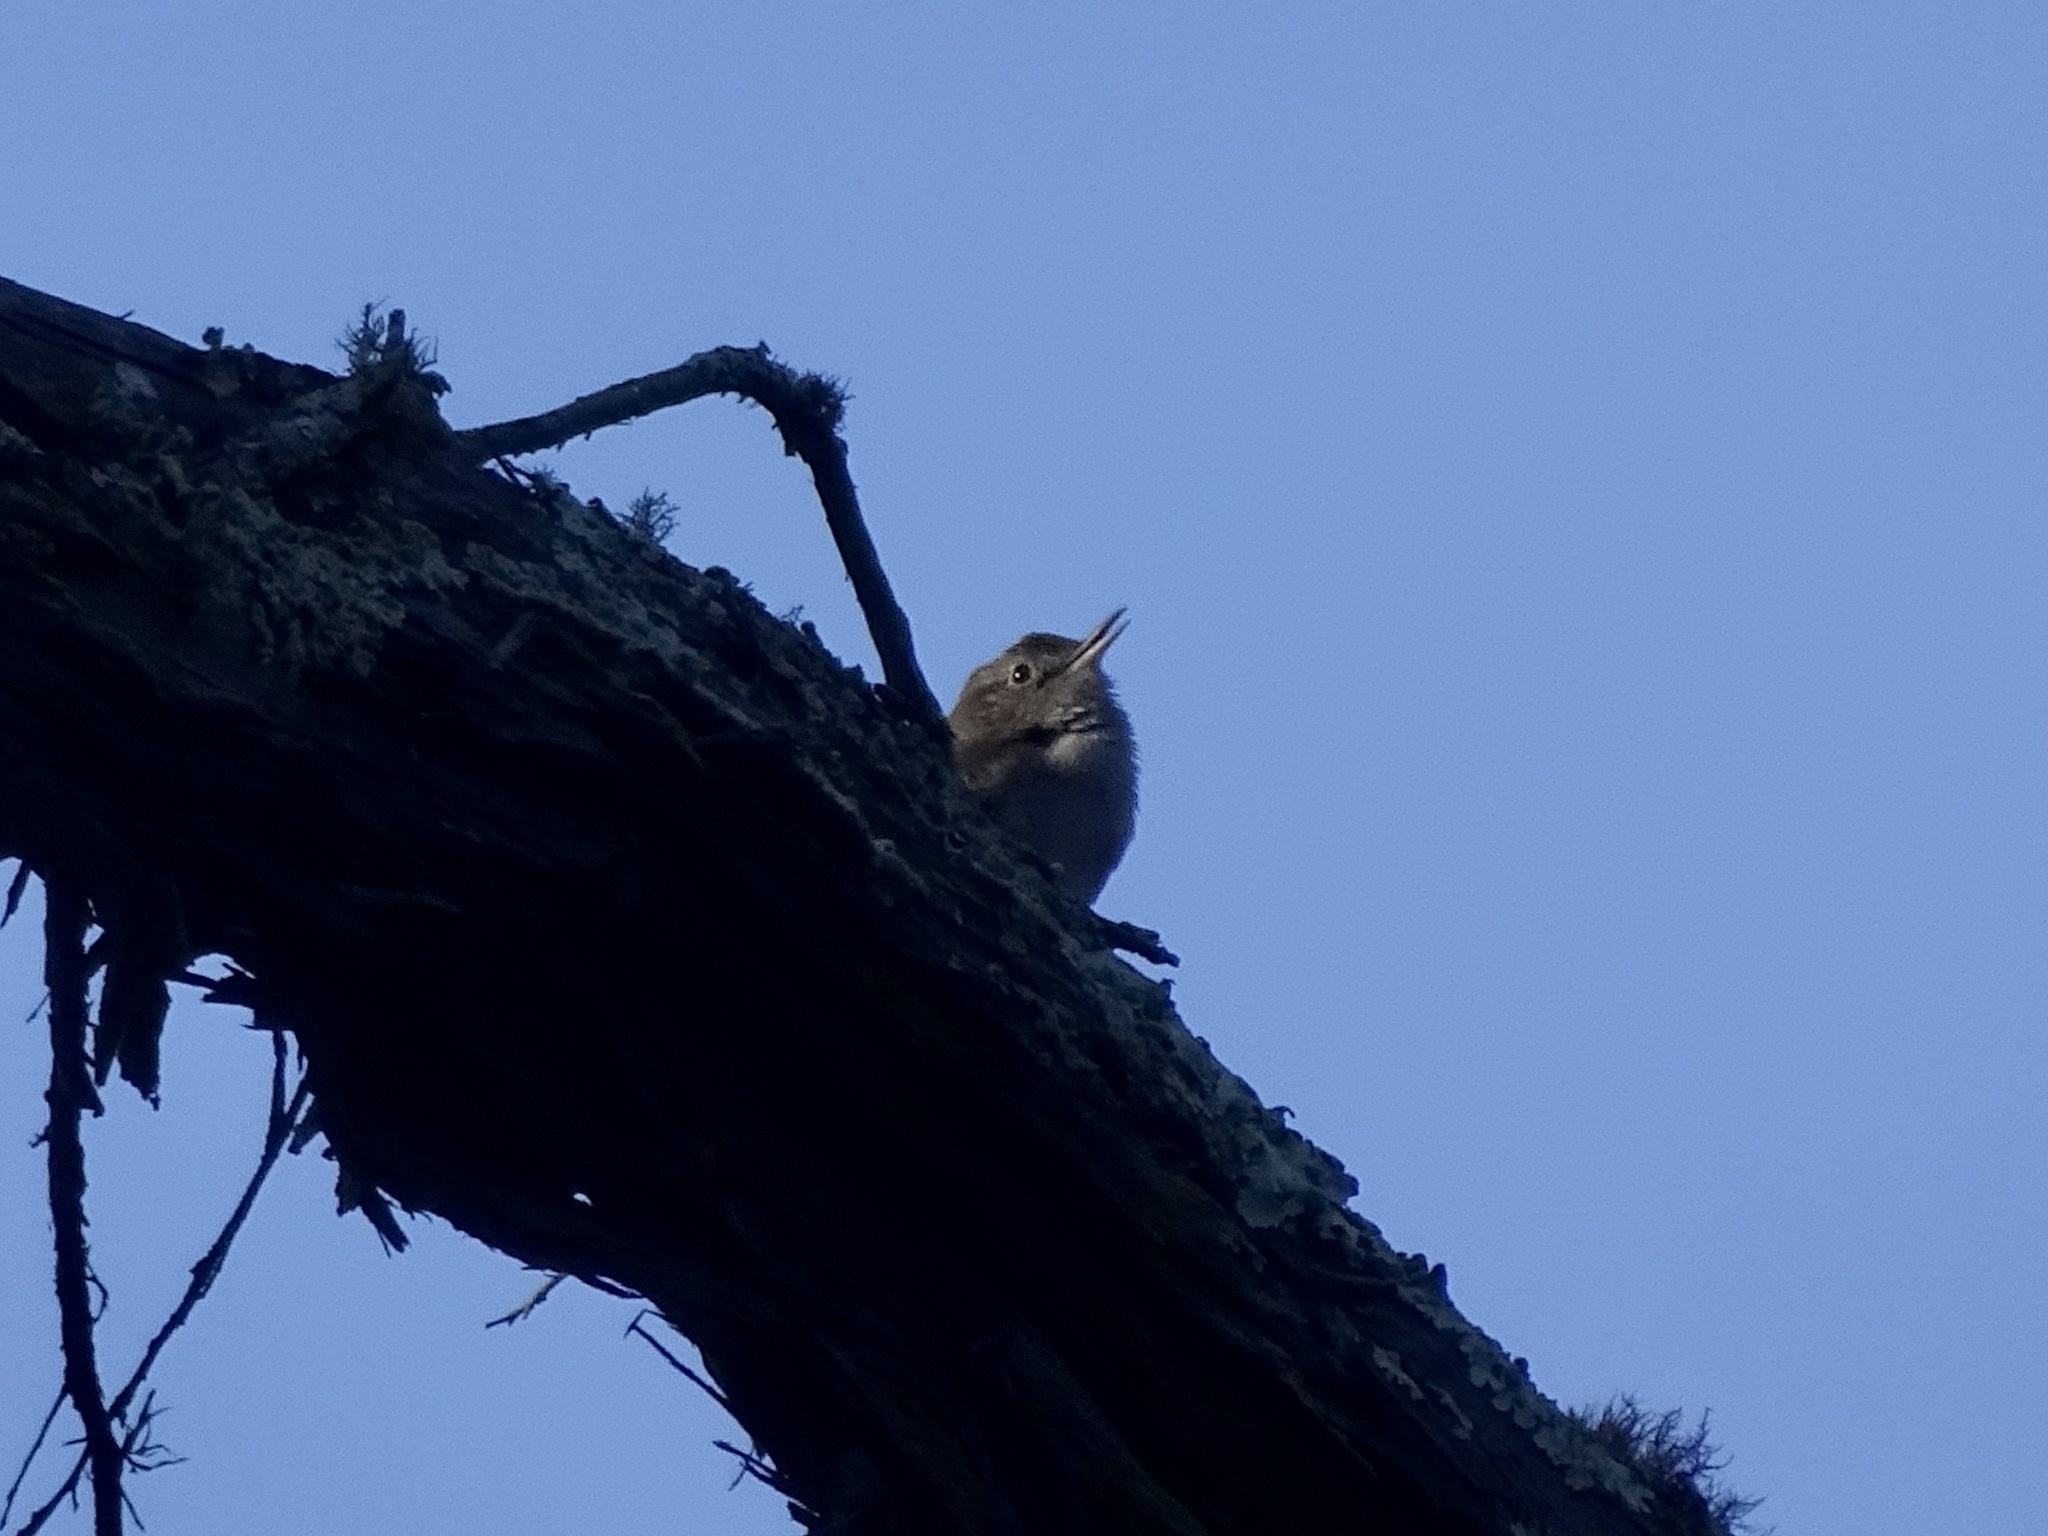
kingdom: Animalia
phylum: Chordata
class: Aves
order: Passeriformes
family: Troglodytidae
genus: Troglodytes
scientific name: Troglodytes aedon
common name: House wren
